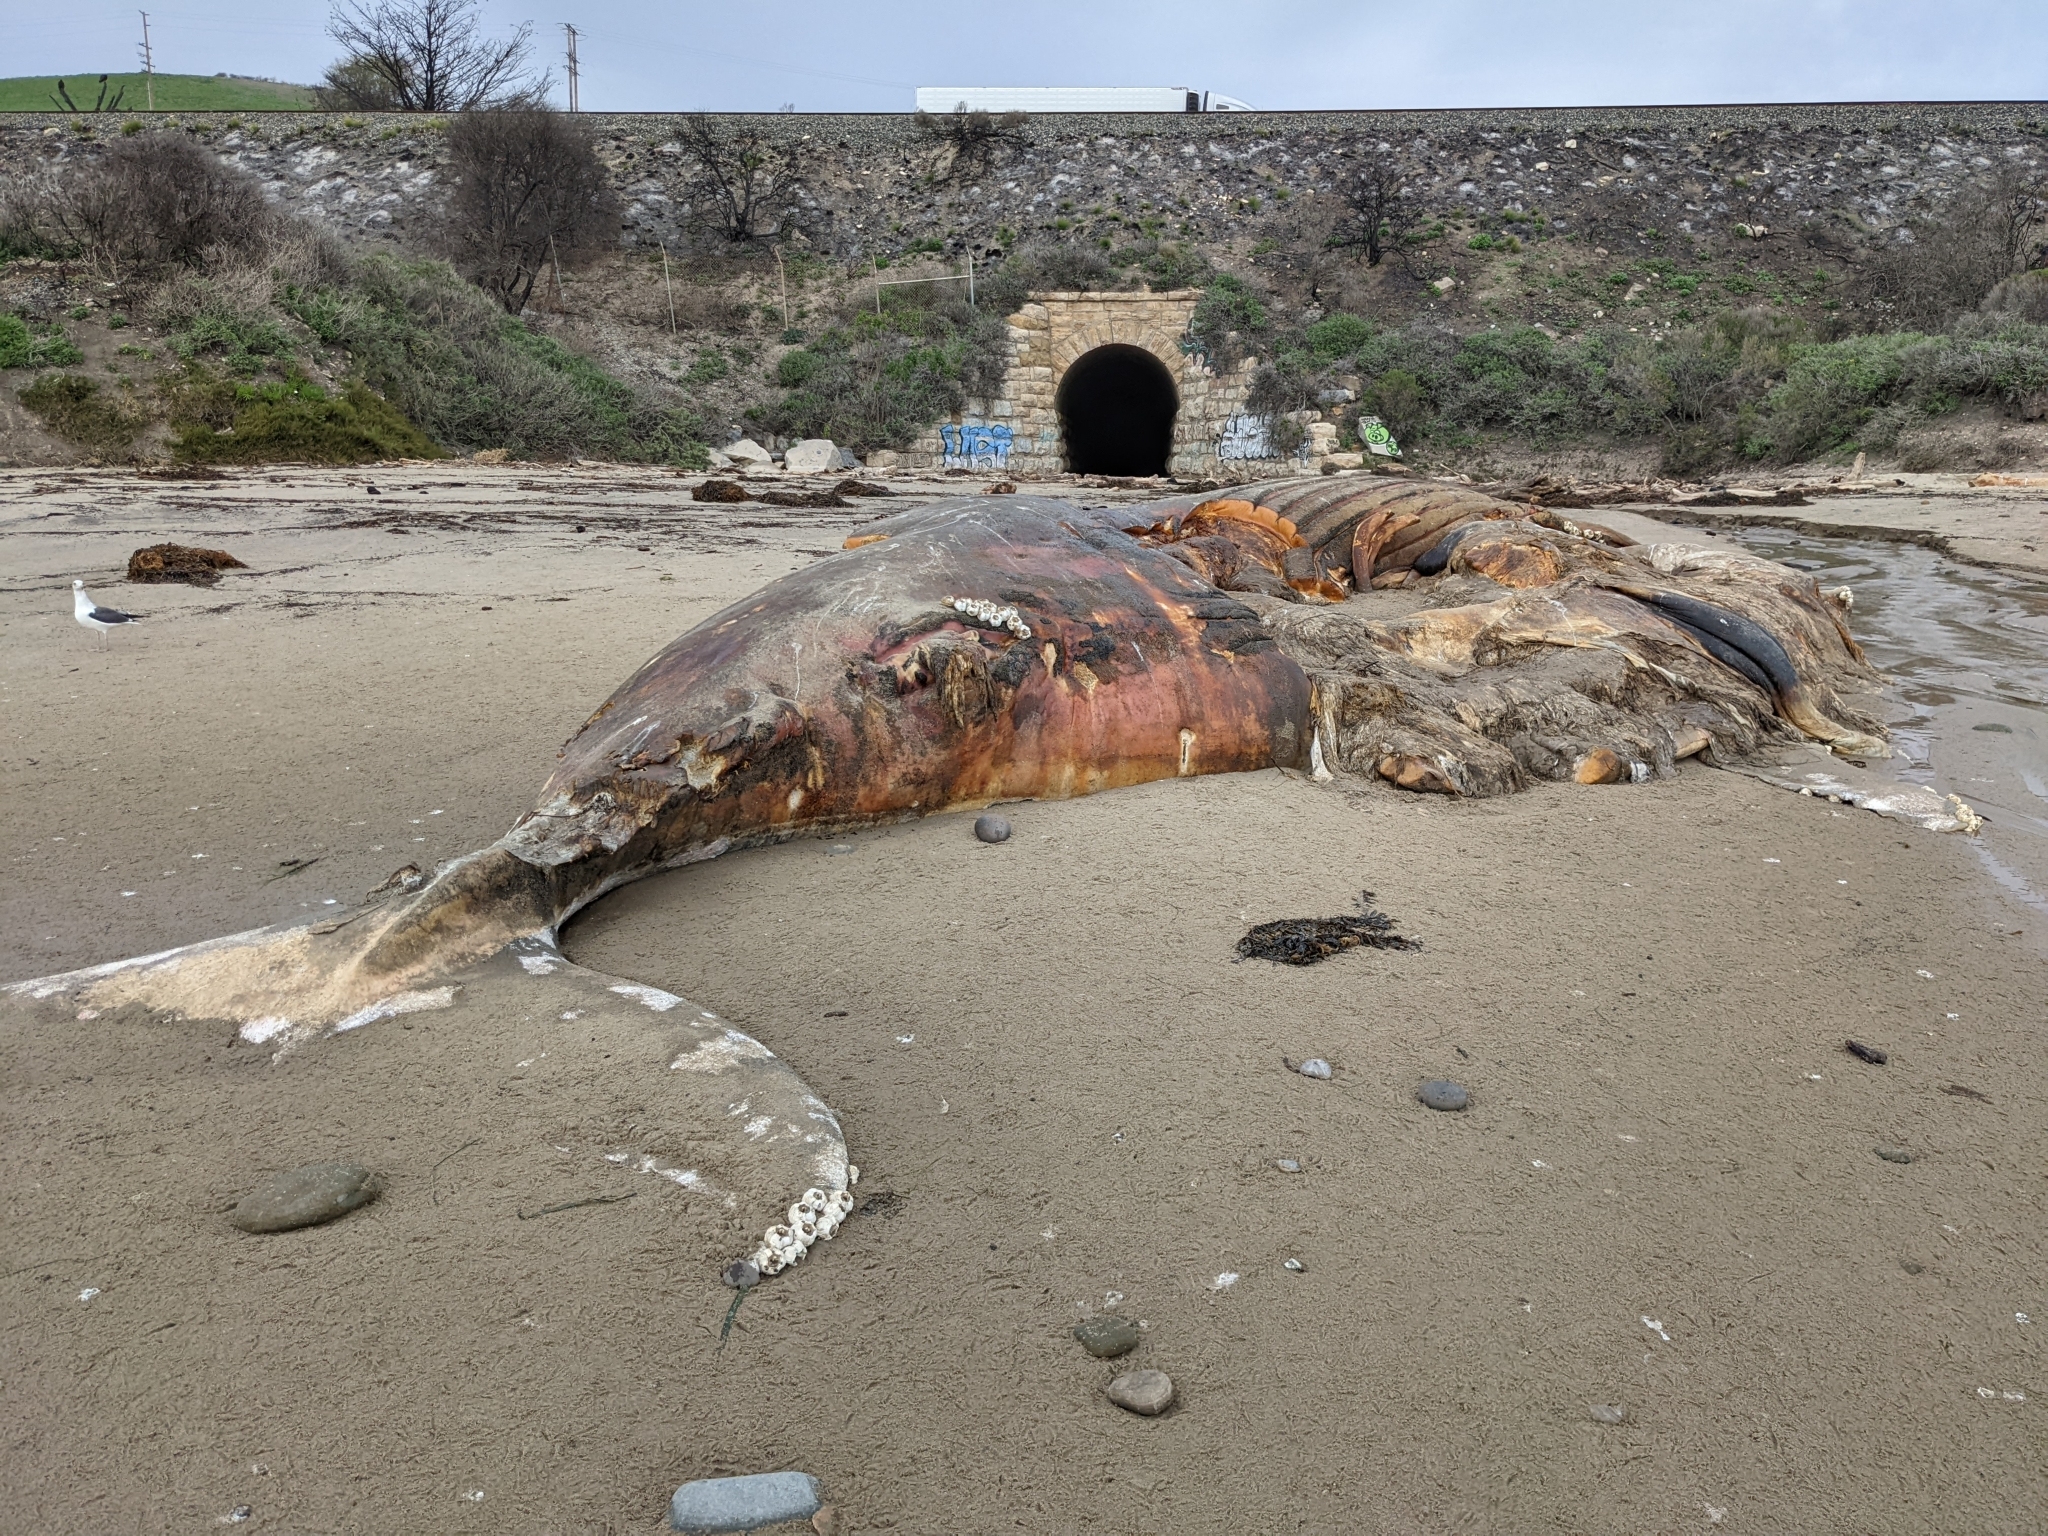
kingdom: Animalia
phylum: Chordata
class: Mammalia
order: Cetacea
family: Balaenopteridae
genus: Megaptera
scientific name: Megaptera novaeangliae
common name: Humpback whale
